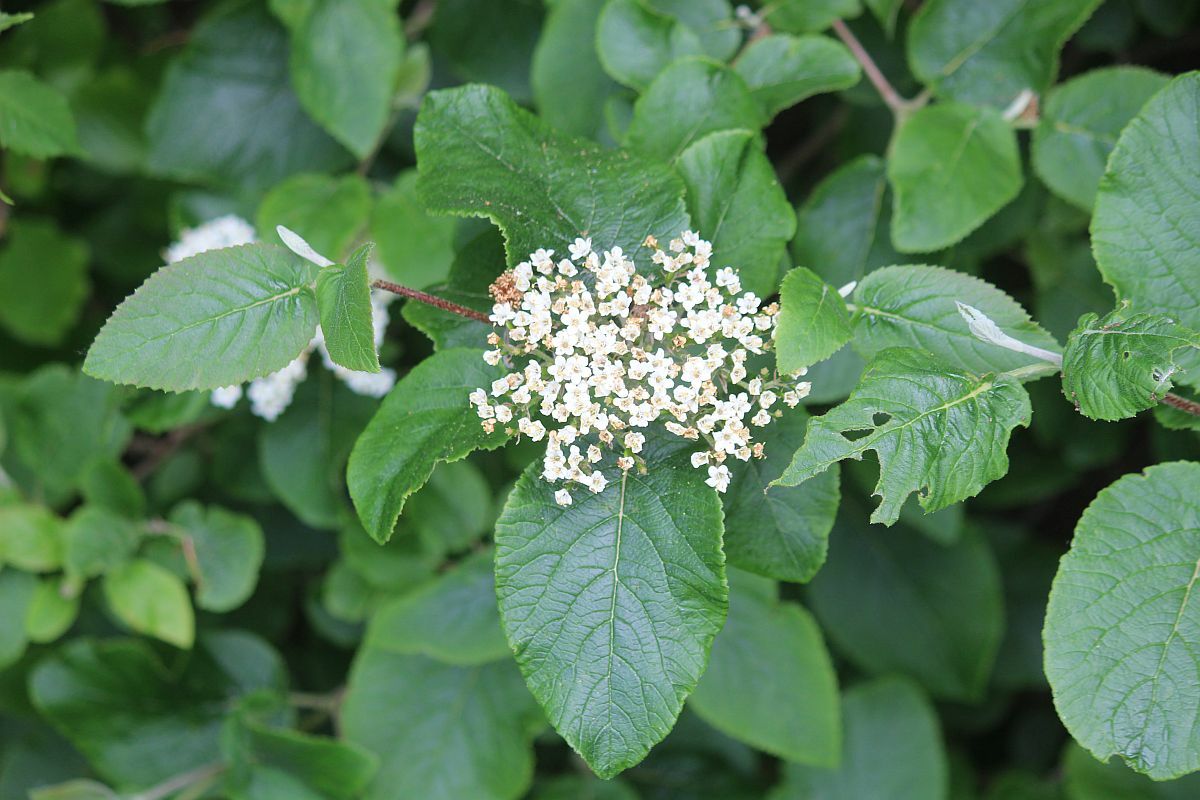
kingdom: Plantae
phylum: Tracheophyta
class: Magnoliopsida
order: Dipsacales
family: Viburnaceae
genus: Viburnum
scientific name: Viburnum lantana
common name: Wayfaring tree
